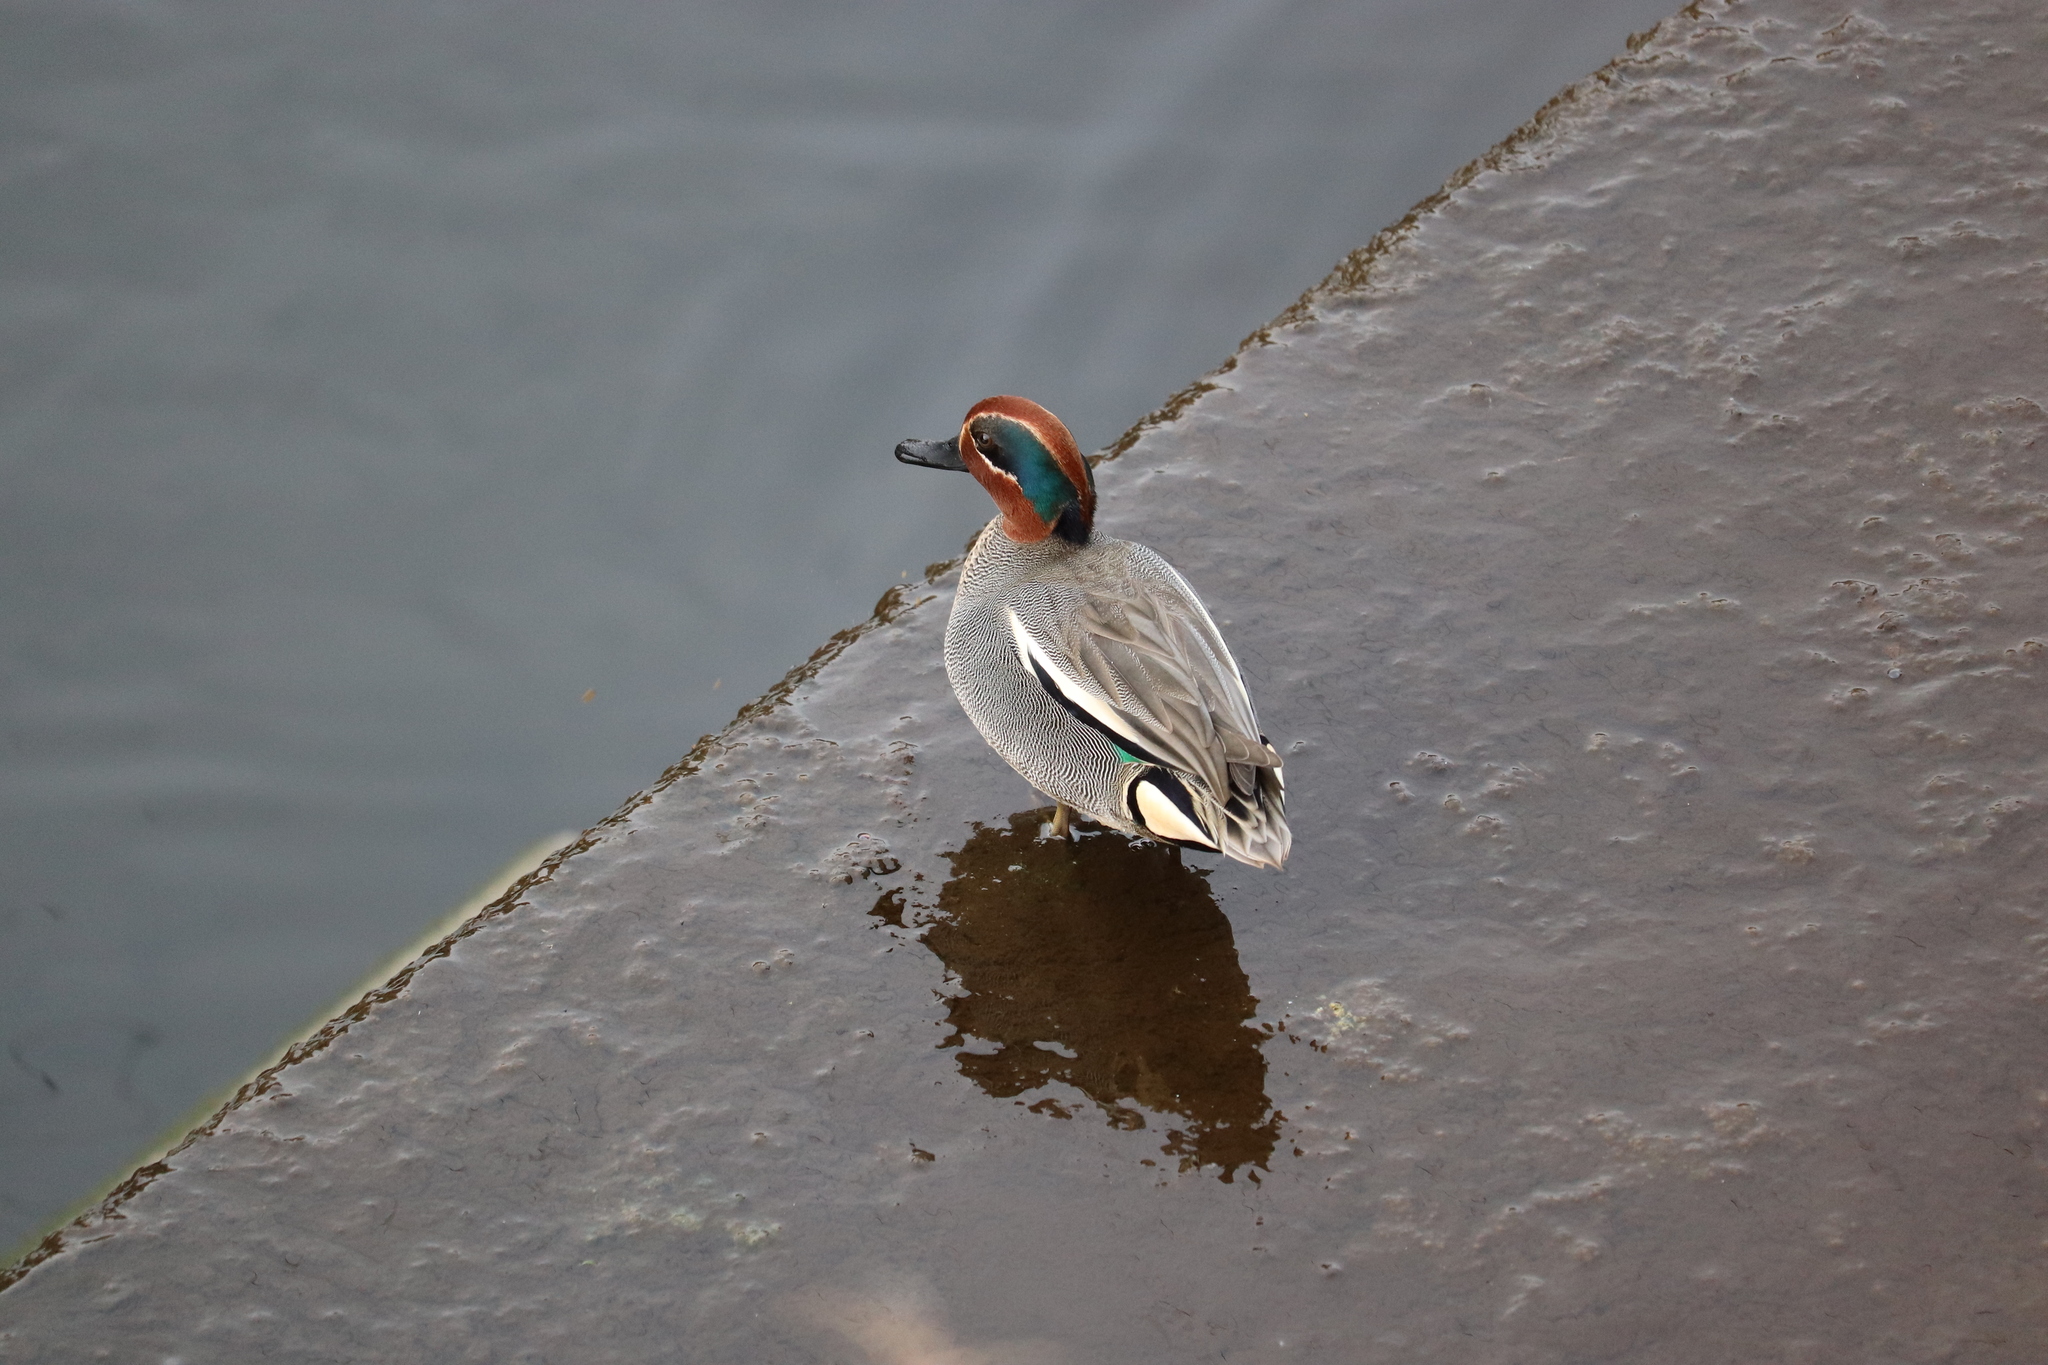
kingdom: Animalia
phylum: Chordata
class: Aves
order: Anseriformes
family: Anatidae
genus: Anas
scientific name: Anas crecca
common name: Eurasian teal
